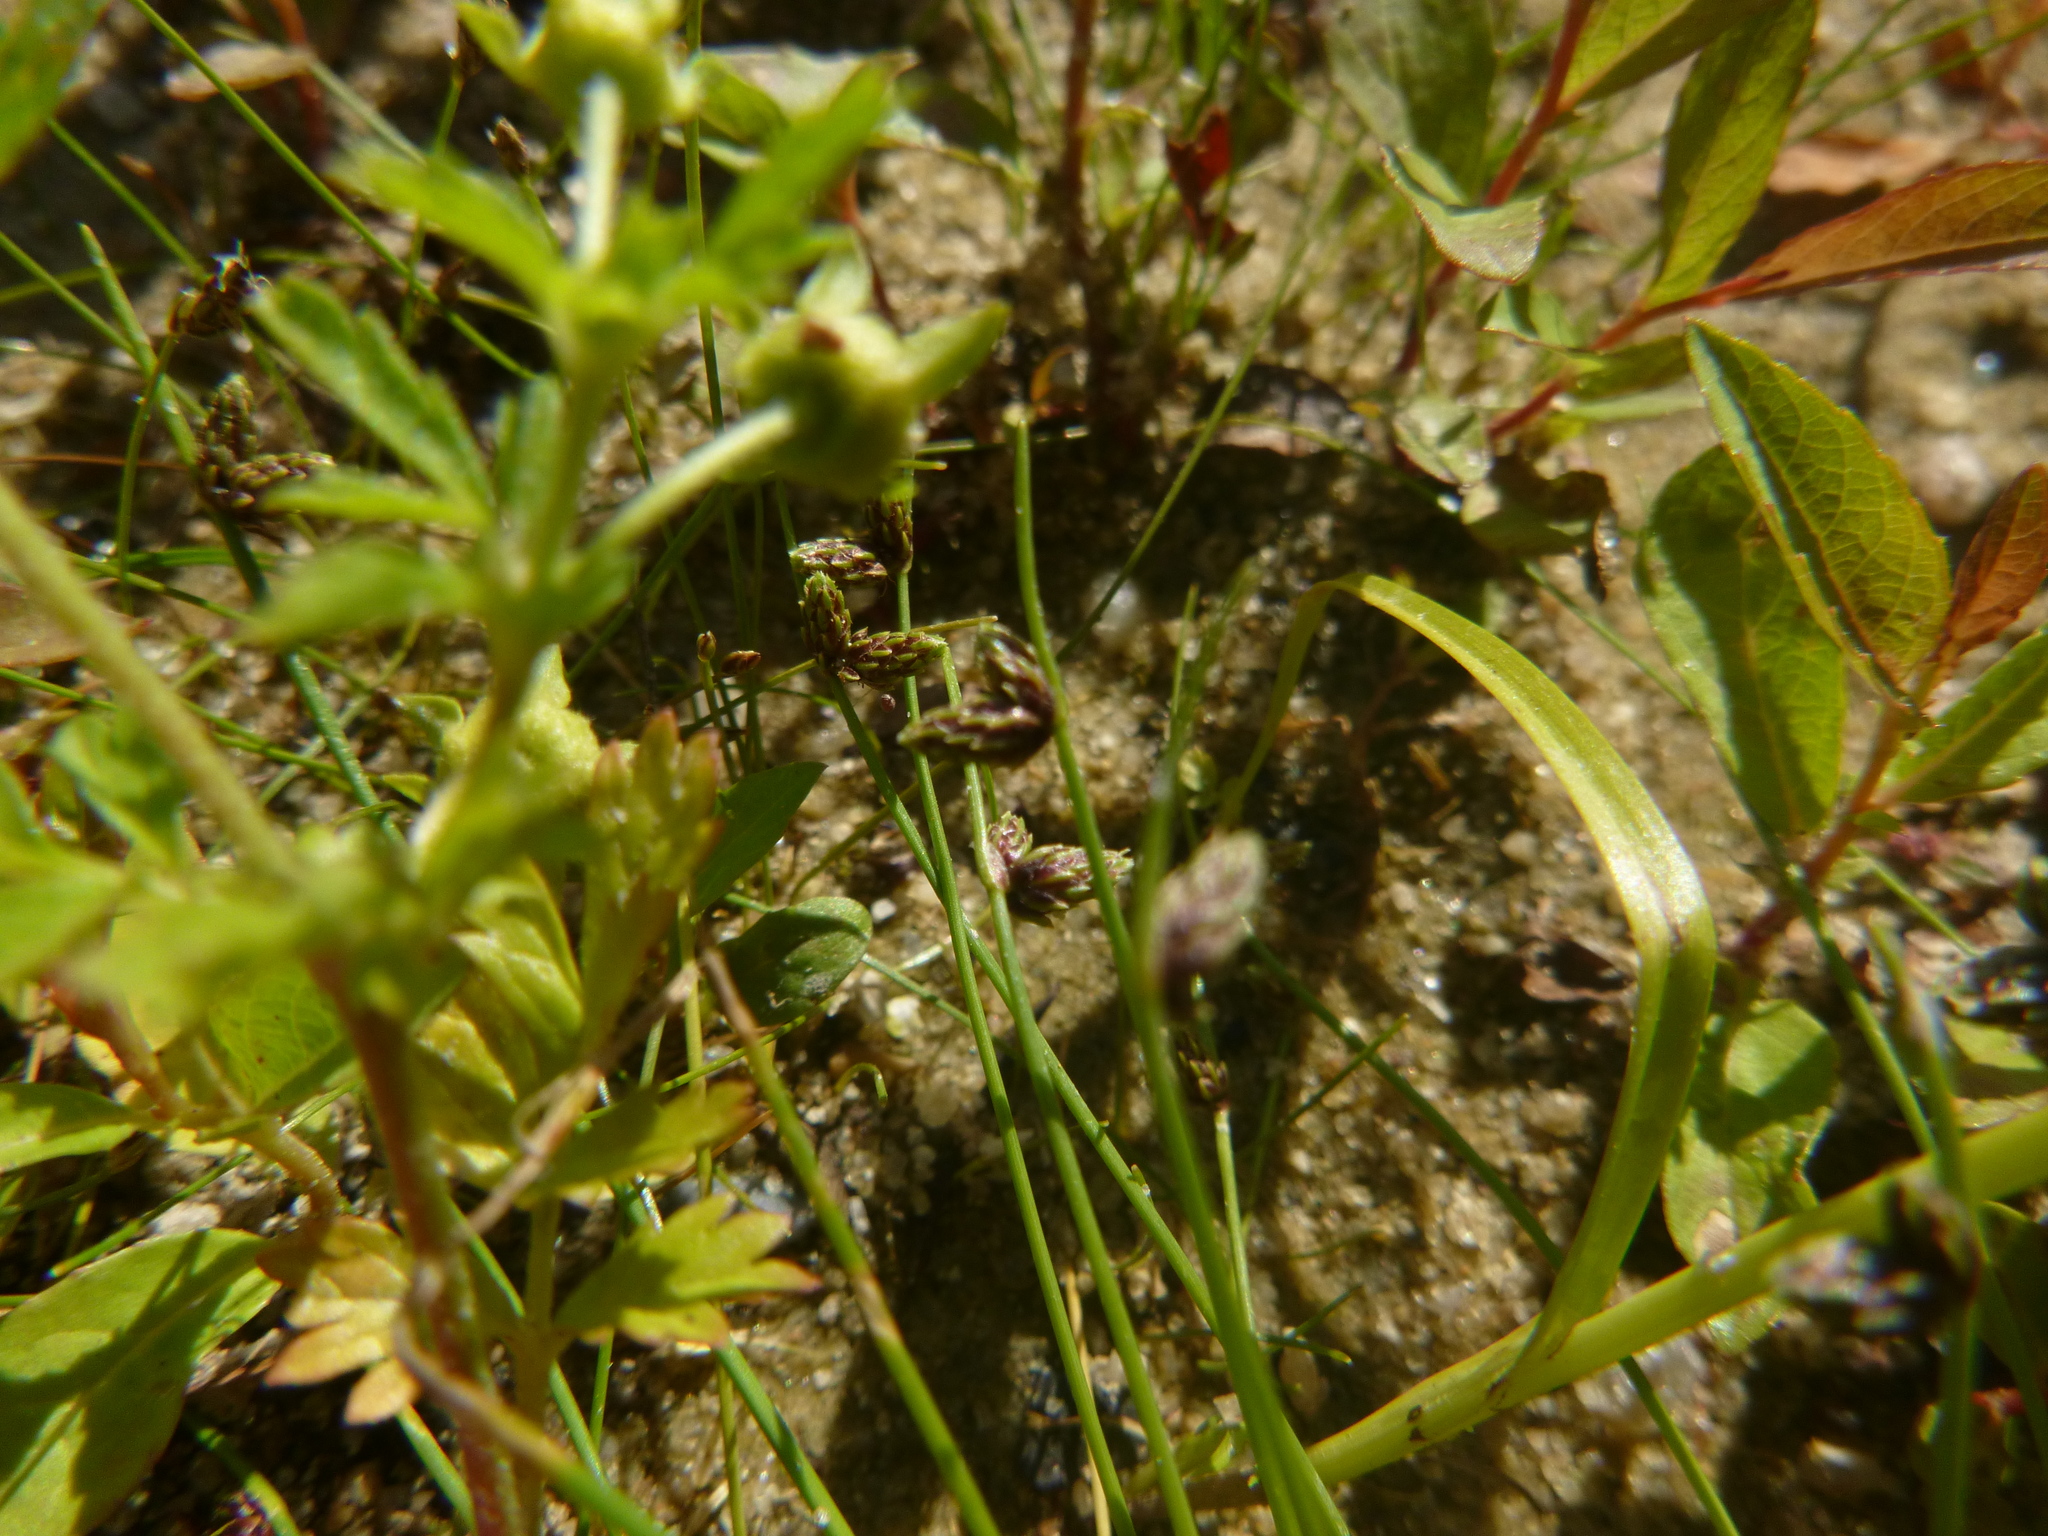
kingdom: Plantae
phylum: Tracheophyta
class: Liliopsida
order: Poales
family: Cyperaceae
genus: Isolepis
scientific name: Isolepis setacea
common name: Bristle club-rush
